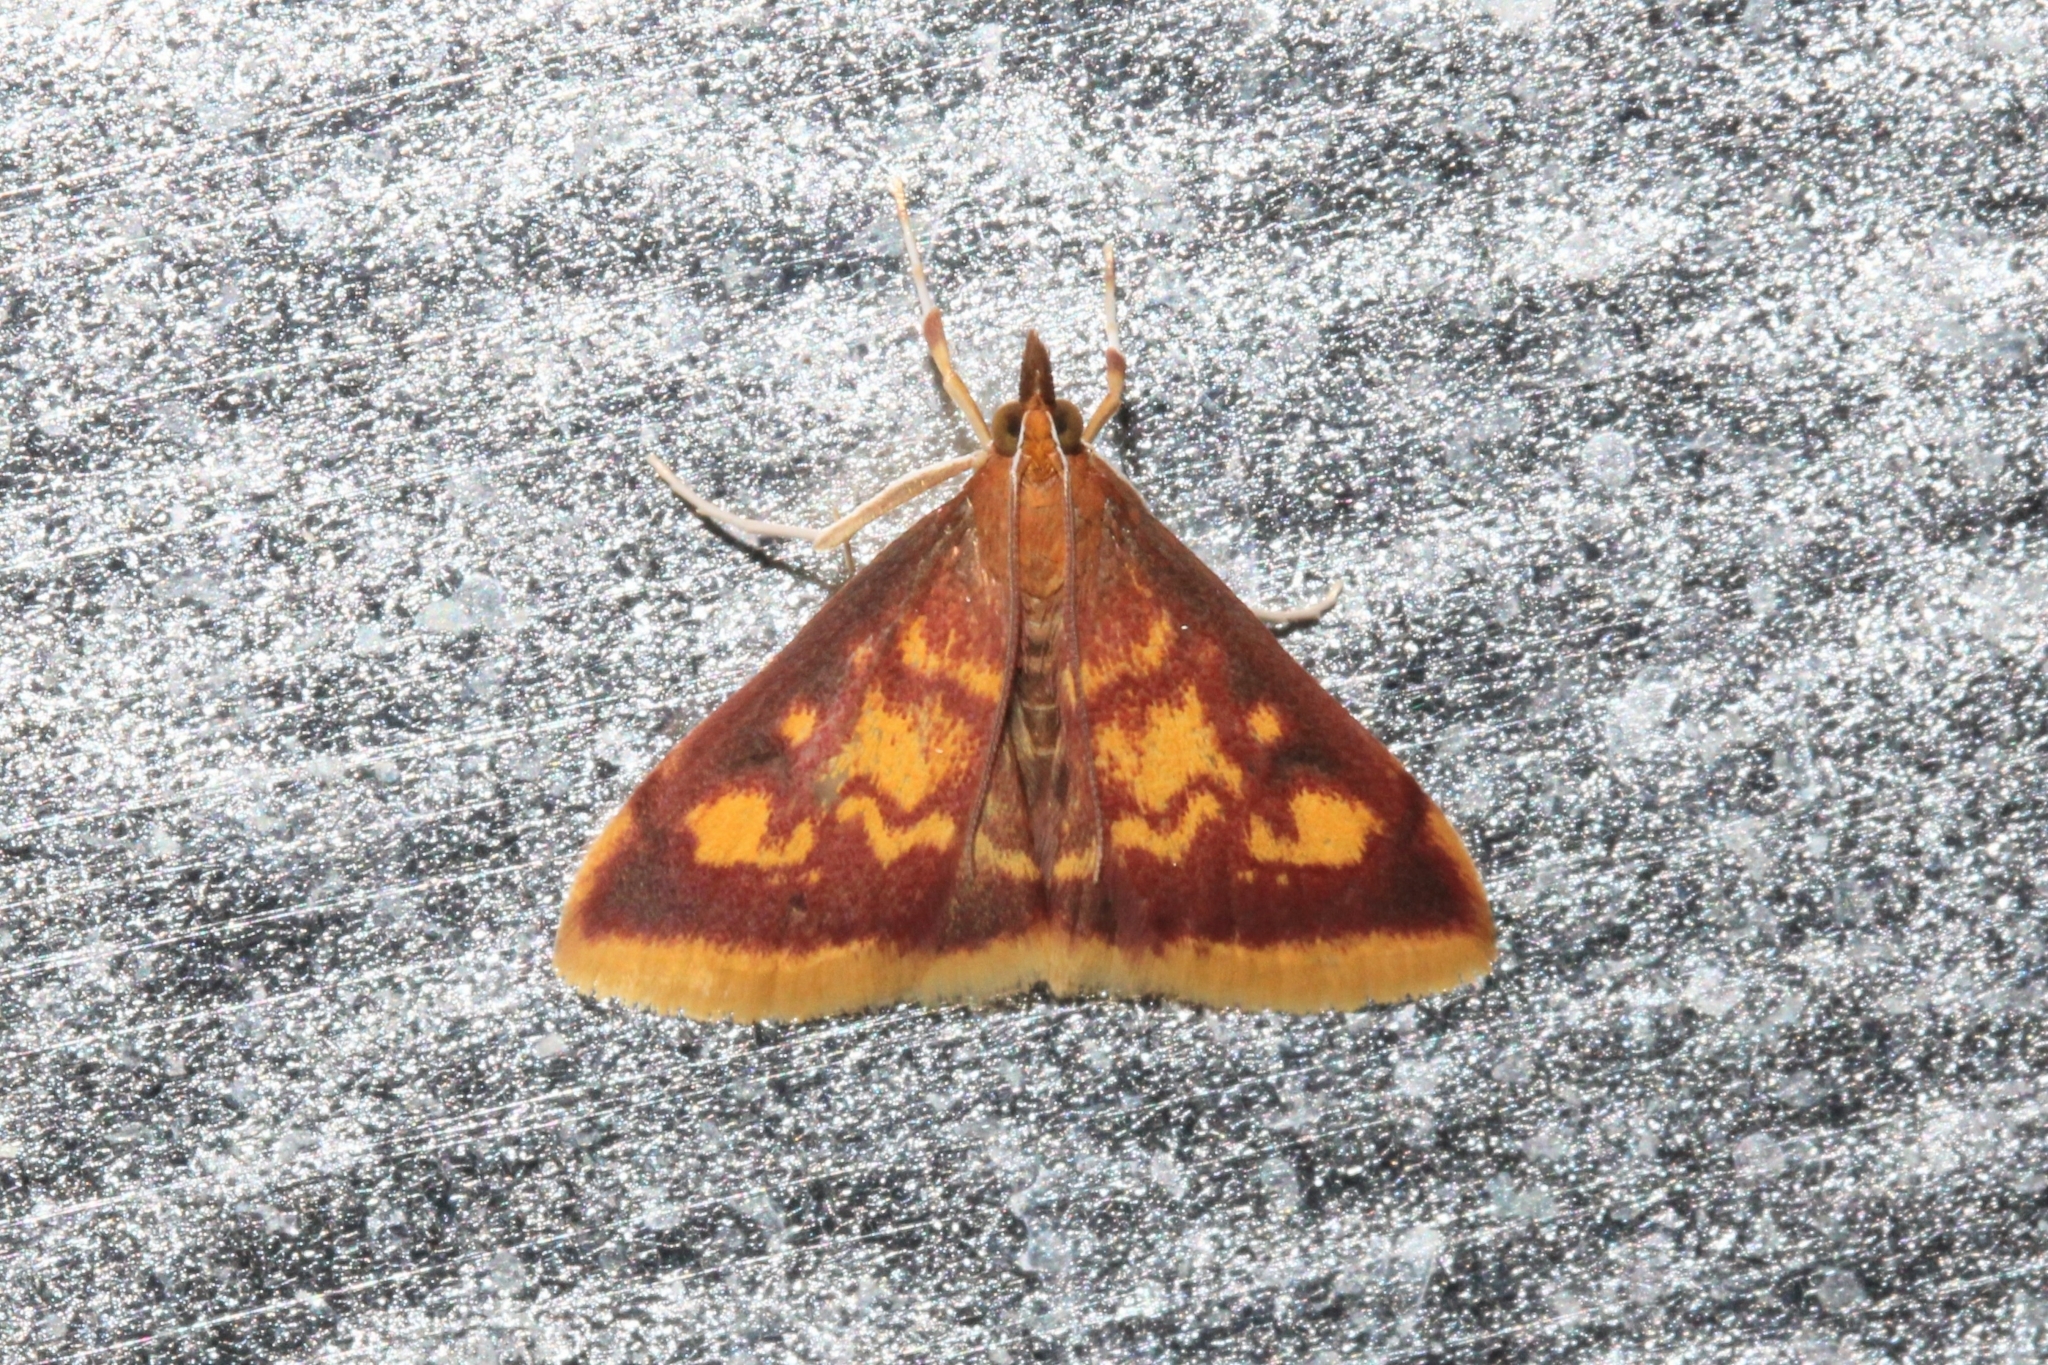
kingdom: Animalia
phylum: Arthropoda
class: Insecta
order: Lepidoptera
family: Crambidae
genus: Pyrausta
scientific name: Pyrausta acrionalis
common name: Mint-loving pyrausta moth
